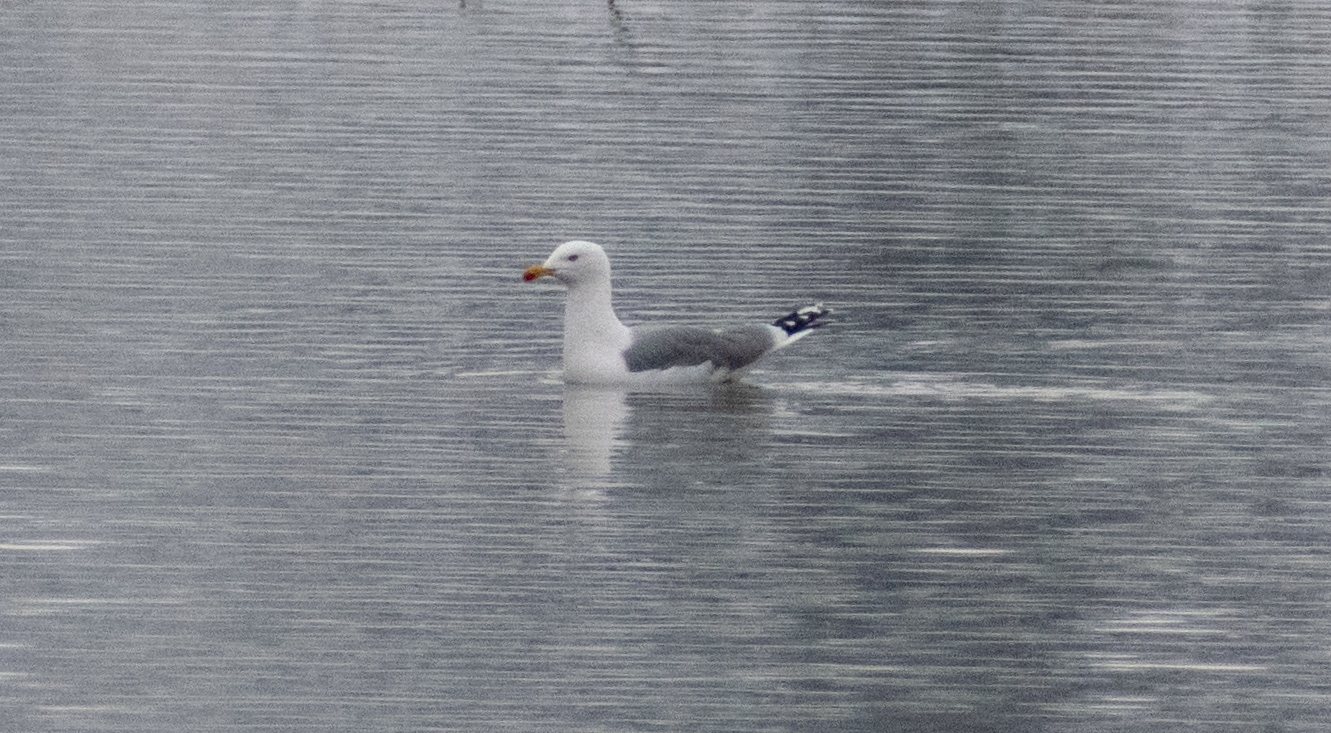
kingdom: Animalia
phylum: Chordata
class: Aves
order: Charadriiformes
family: Laridae
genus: Larus
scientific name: Larus michahellis
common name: Yellow-legged gull
